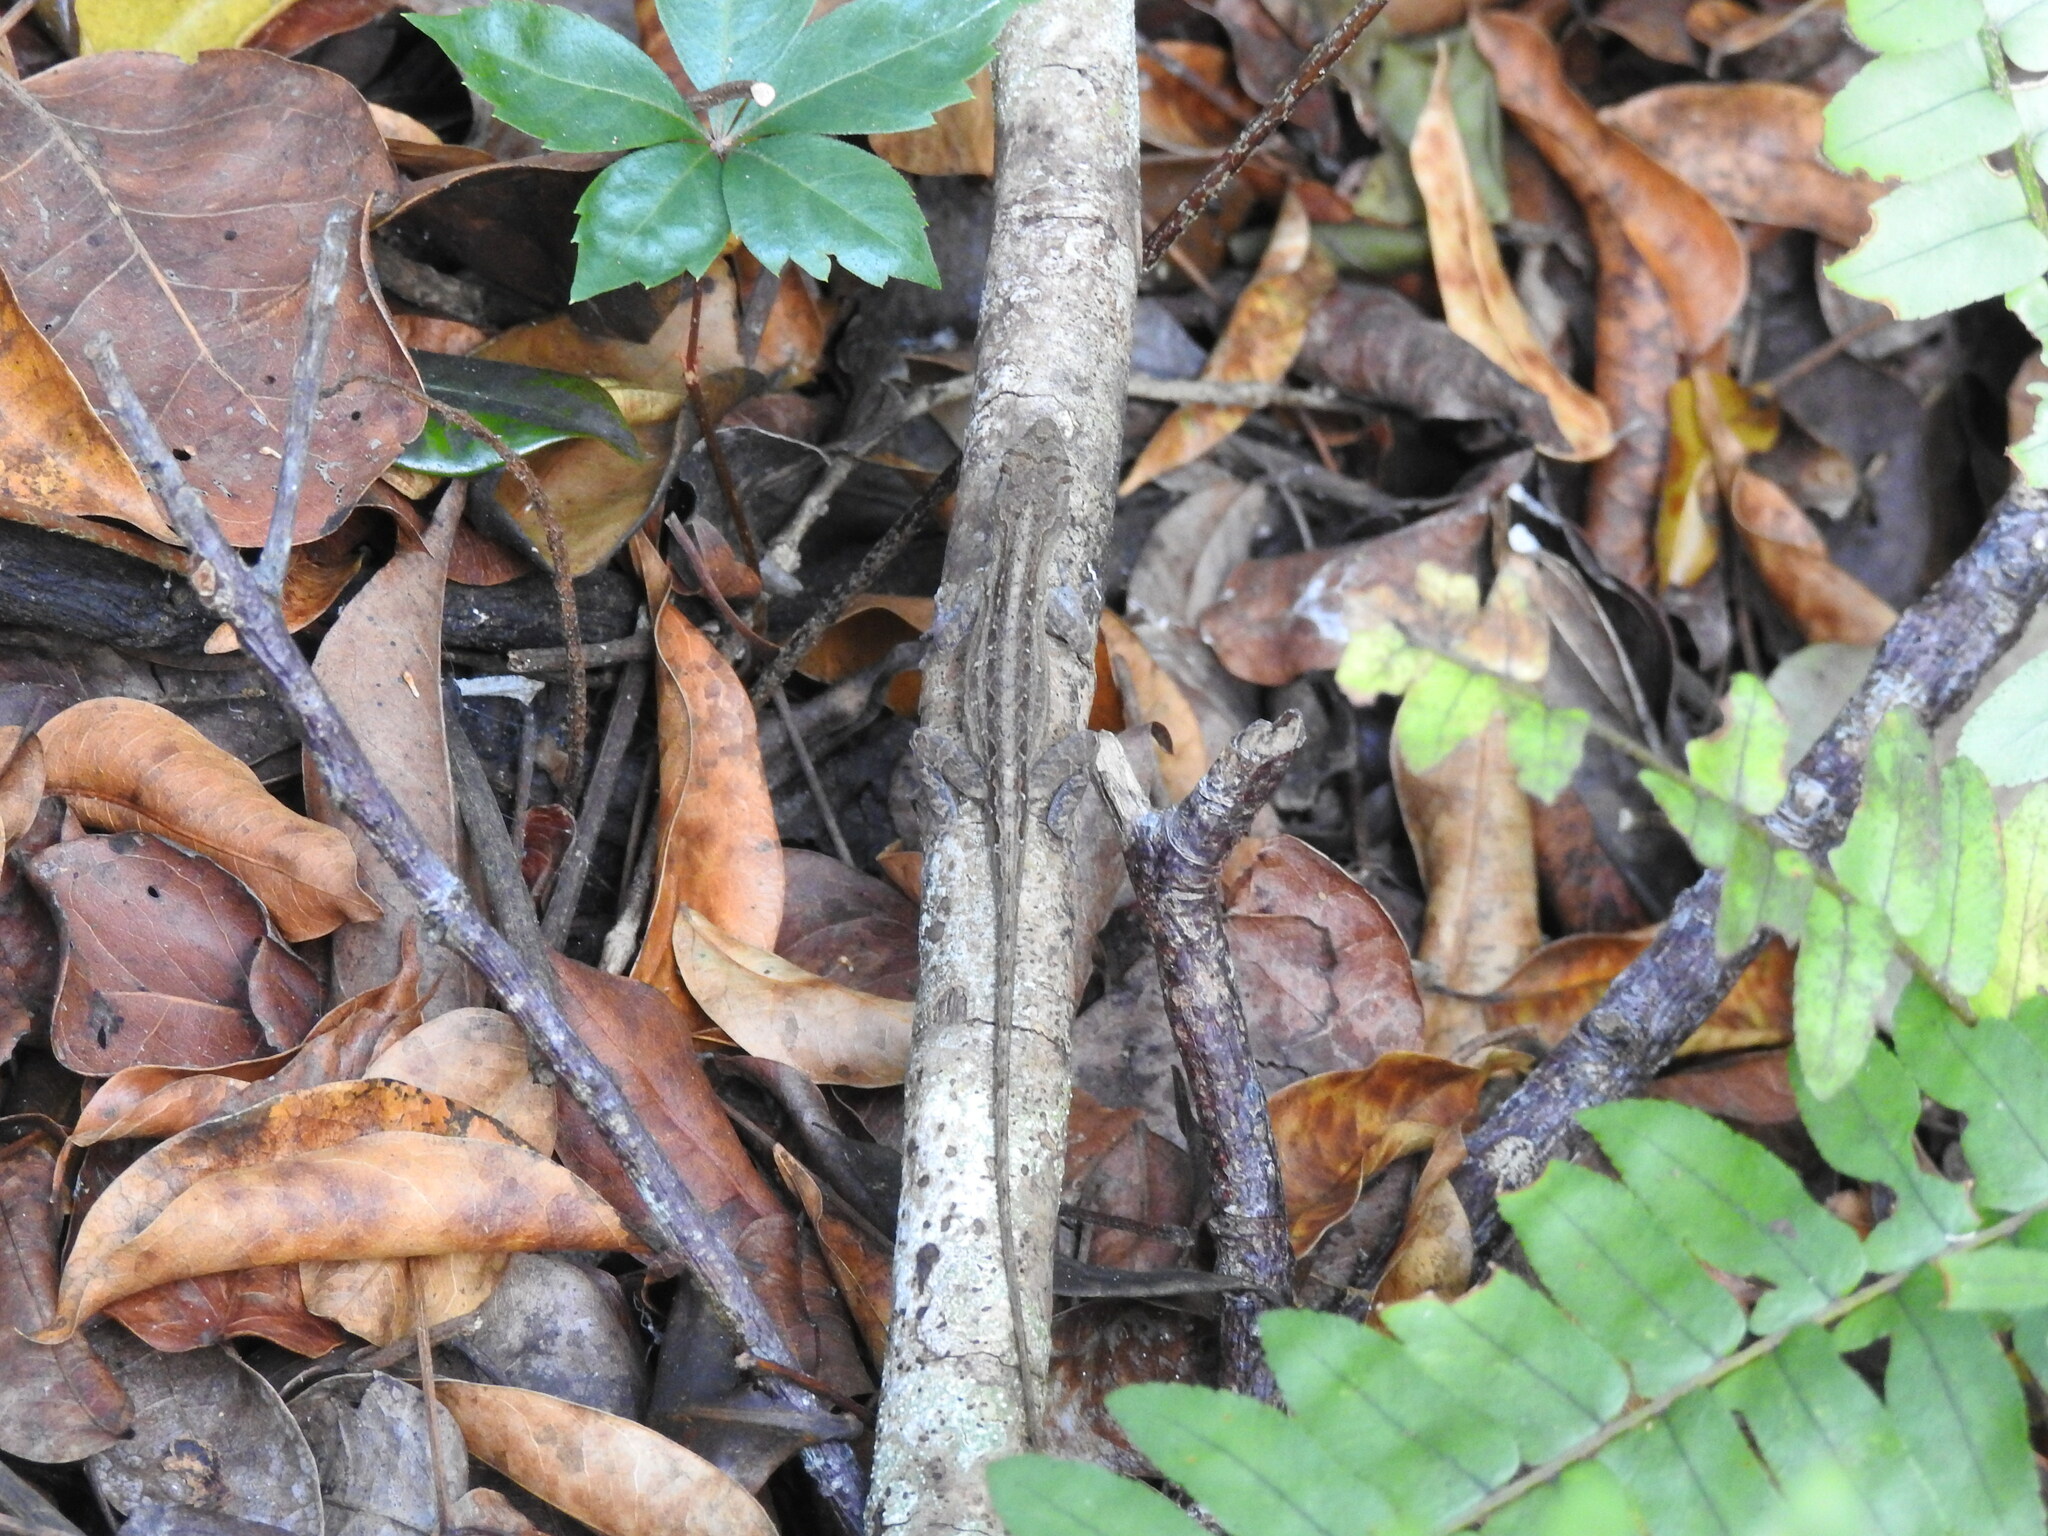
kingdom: Animalia
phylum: Chordata
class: Squamata
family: Dactyloidae
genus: Anolis
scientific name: Anolis sagrei
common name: Brown anole
